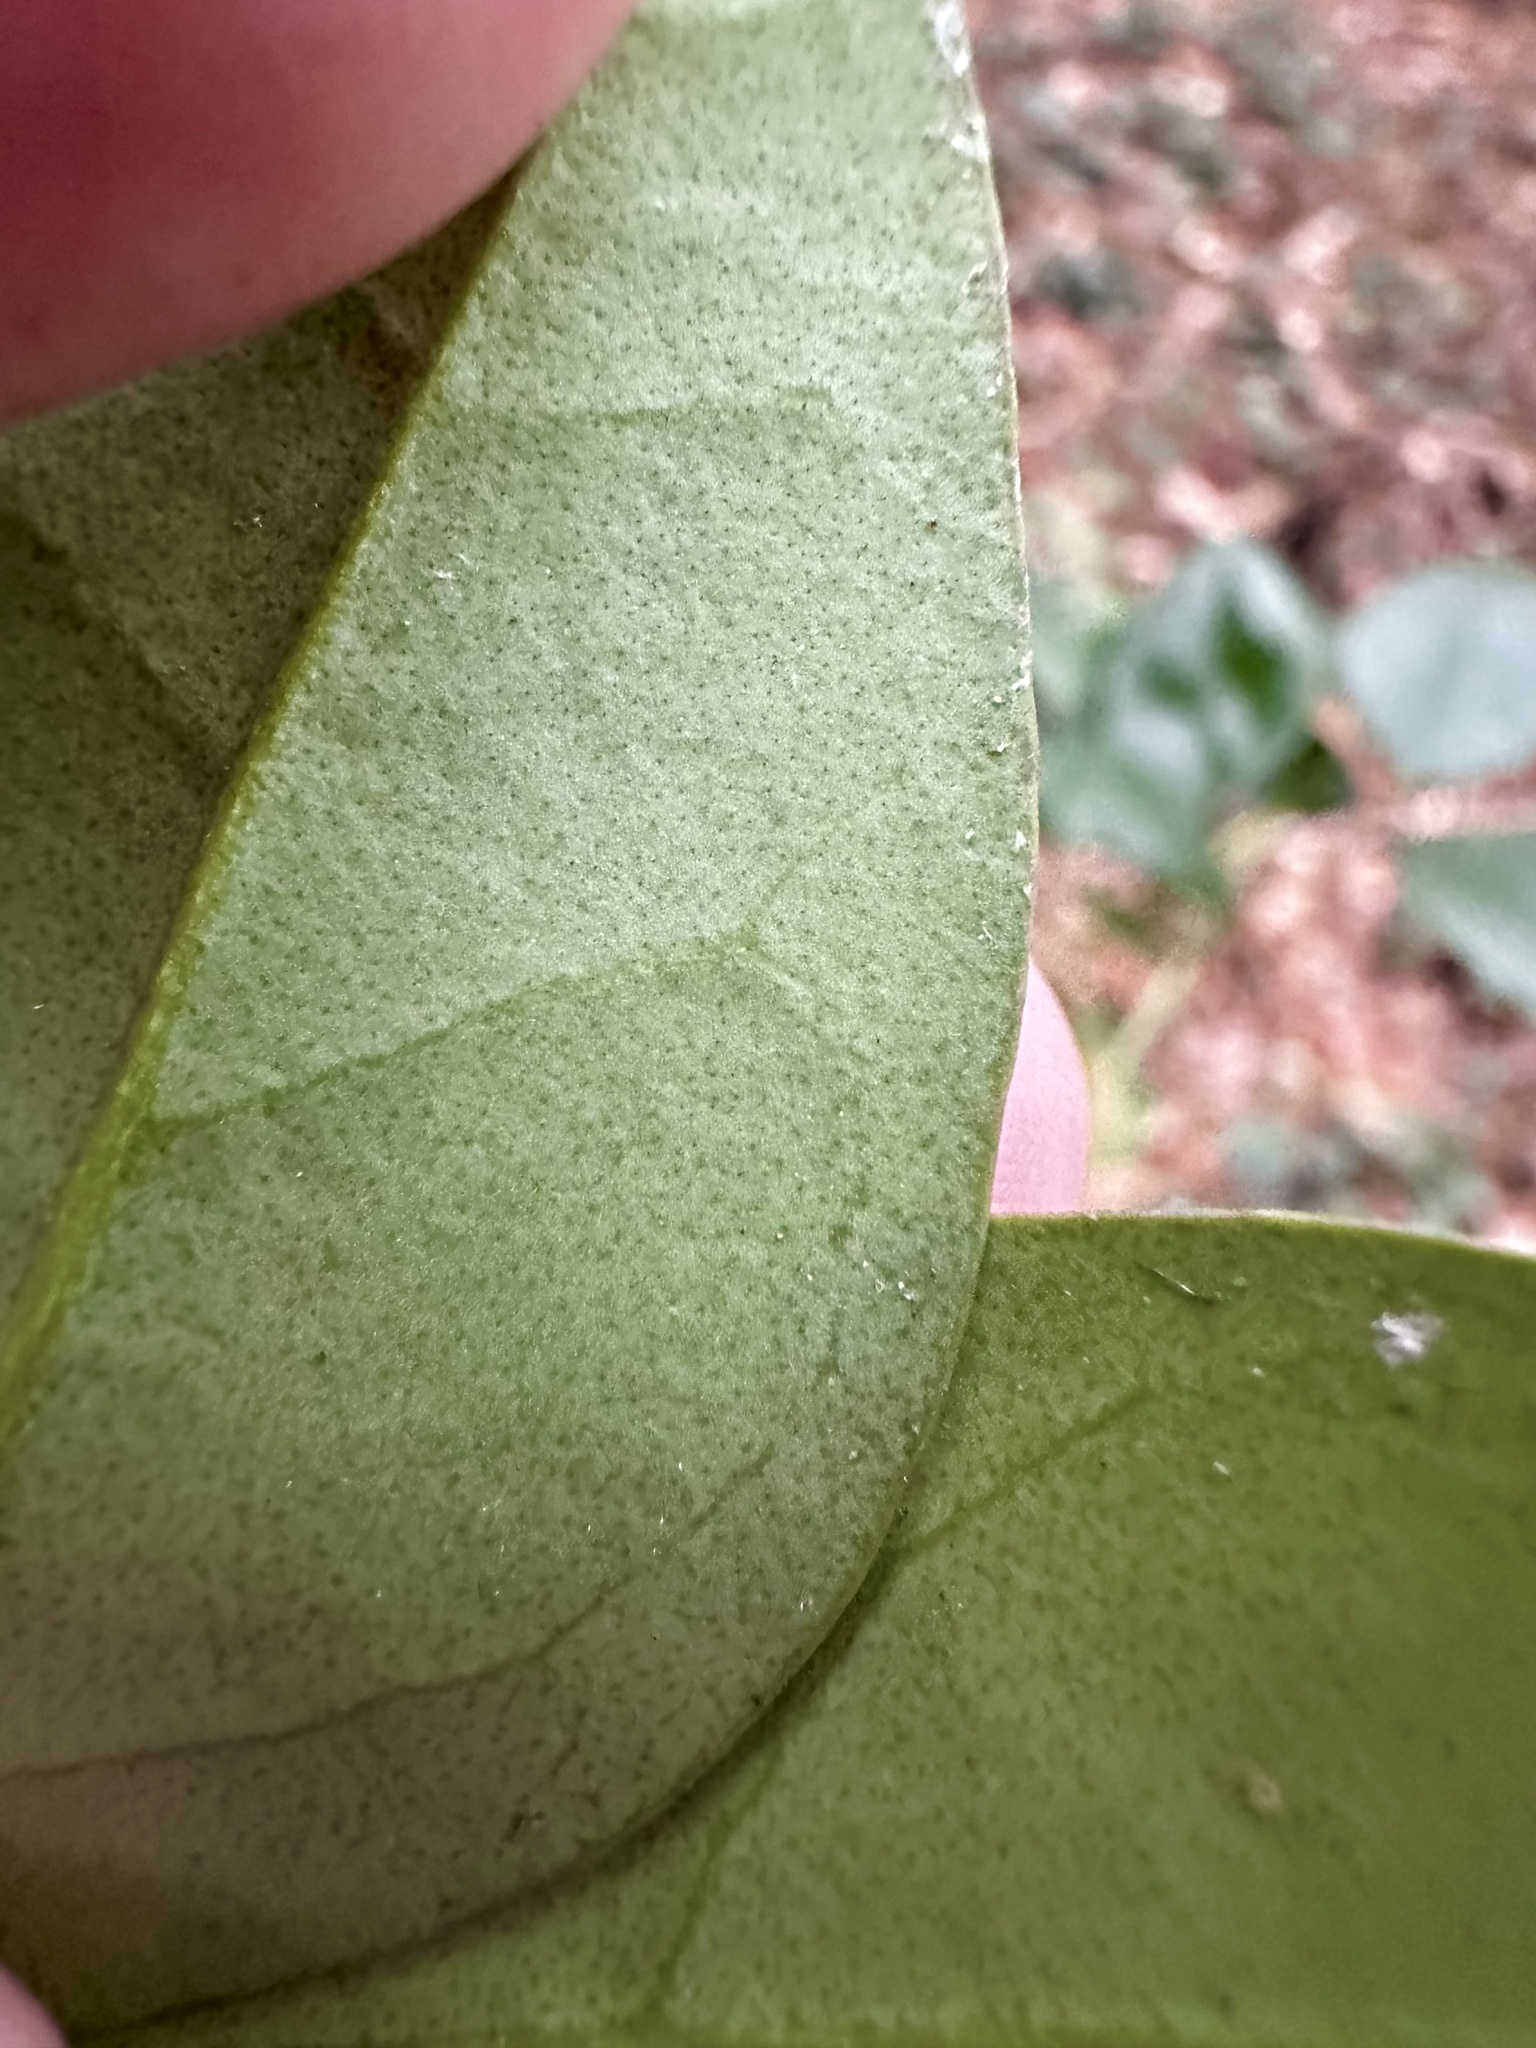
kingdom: Plantae
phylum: Tracheophyta
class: Magnoliopsida
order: Lamiales
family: Oleaceae
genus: Ligustrum
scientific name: Ligustrum lucidum
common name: Glossy privet
